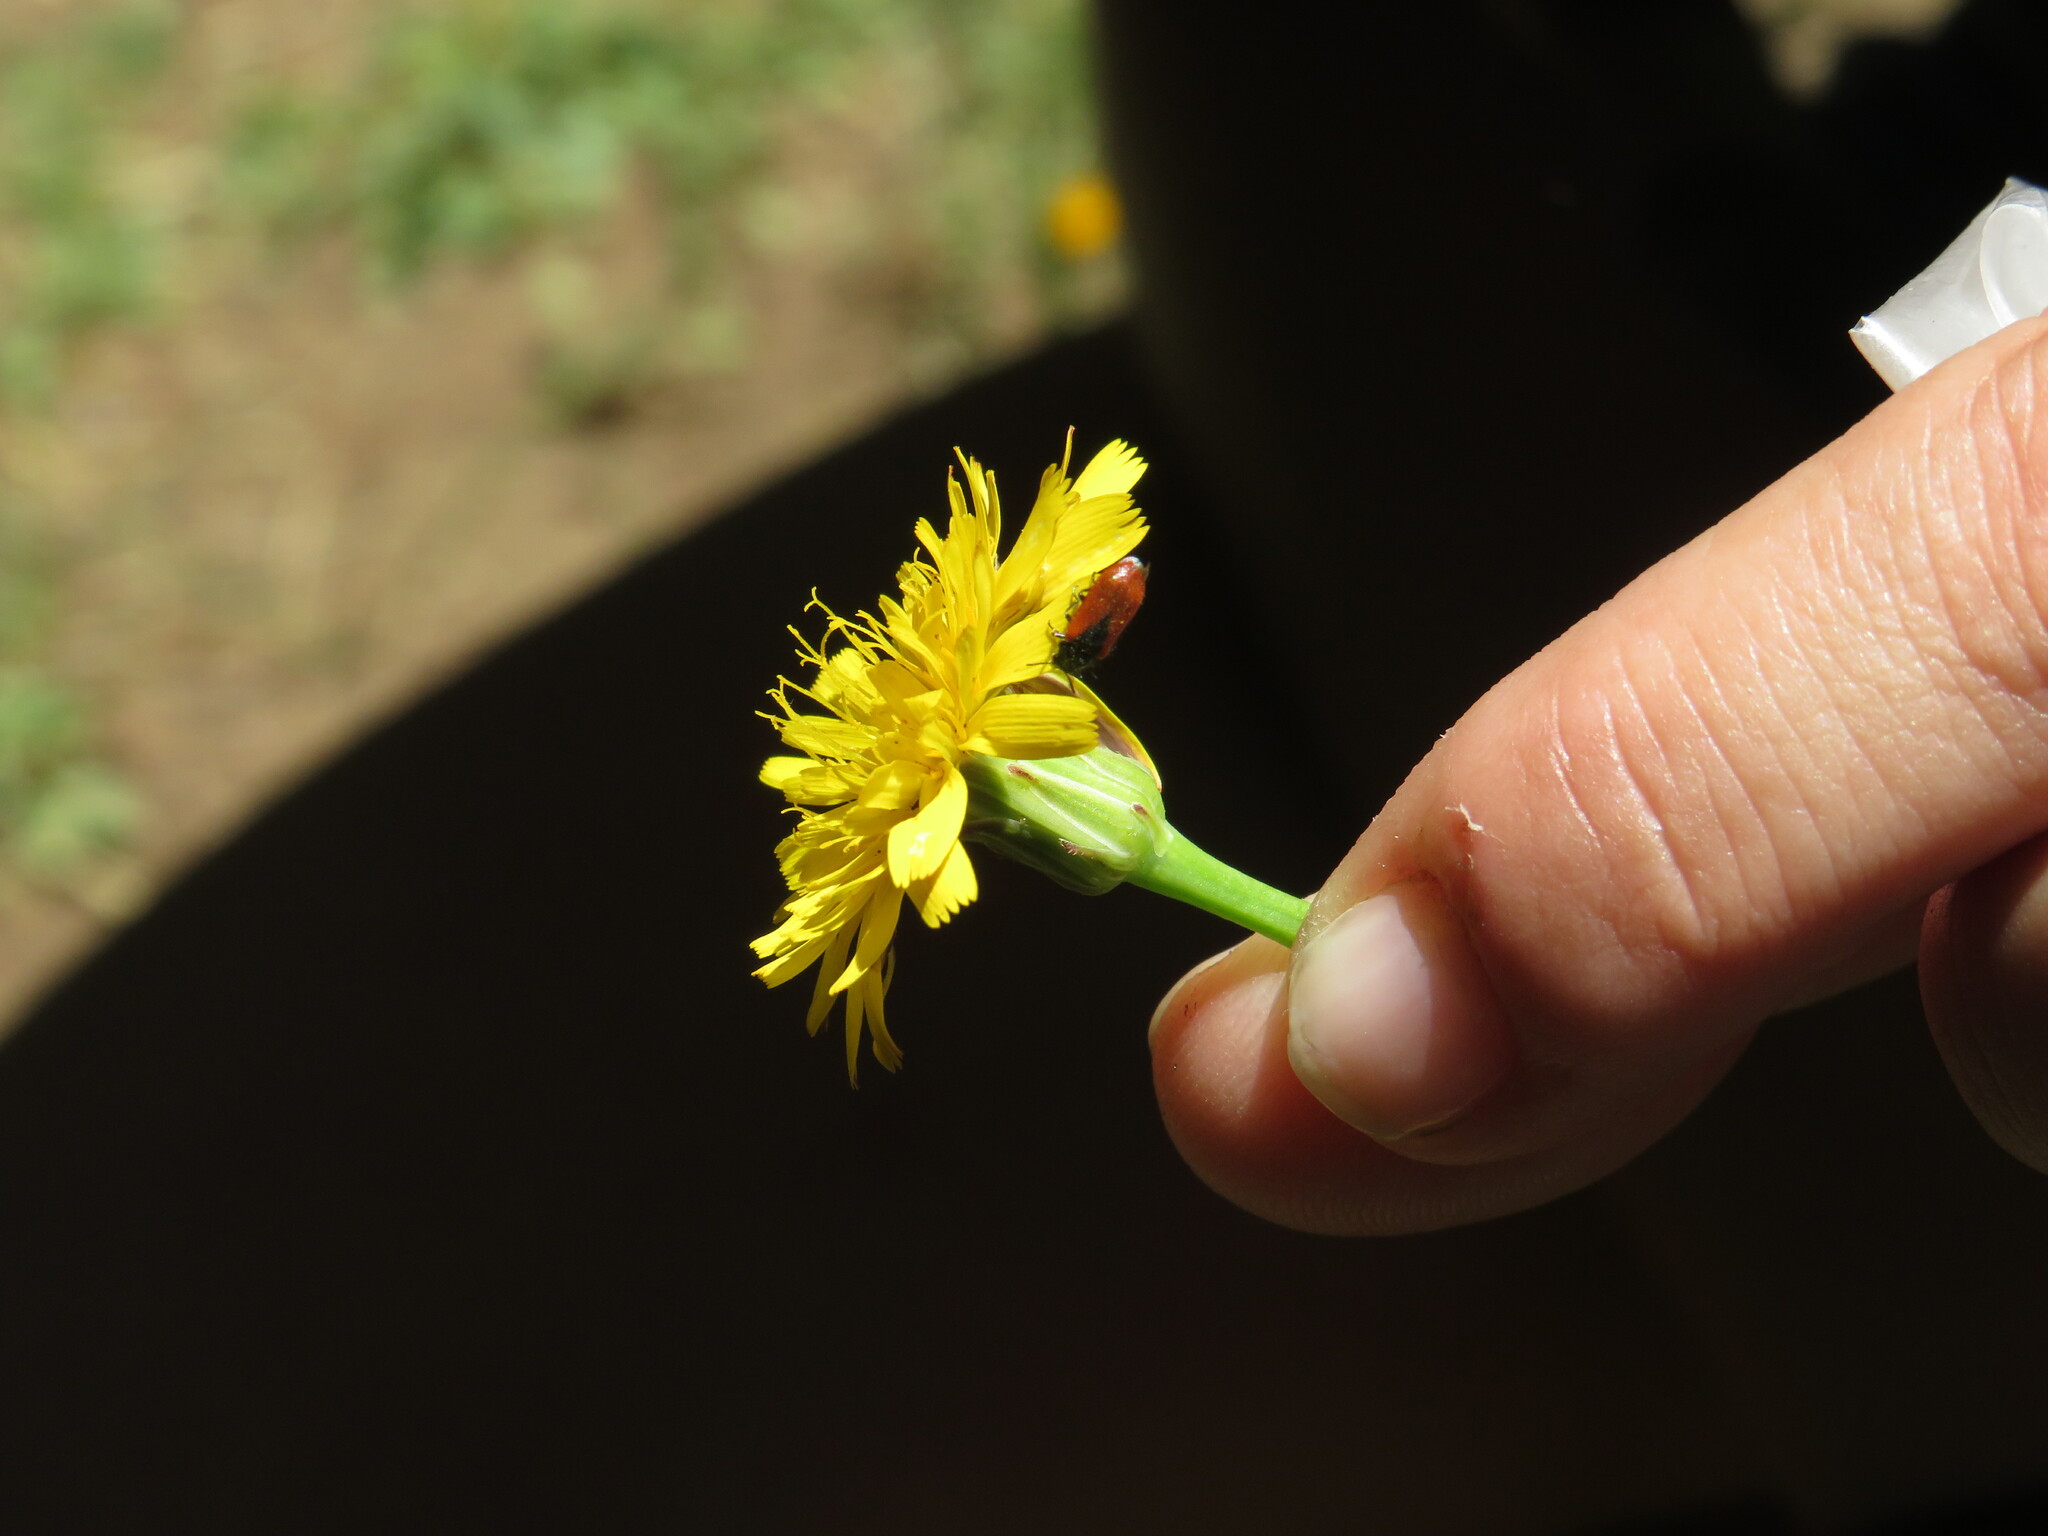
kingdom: Animalia
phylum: Arthropoda
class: Insecta
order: Coleoptera
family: Melyridae
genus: Arthrobrachus
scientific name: Arthrobrachus nigromaculatus
